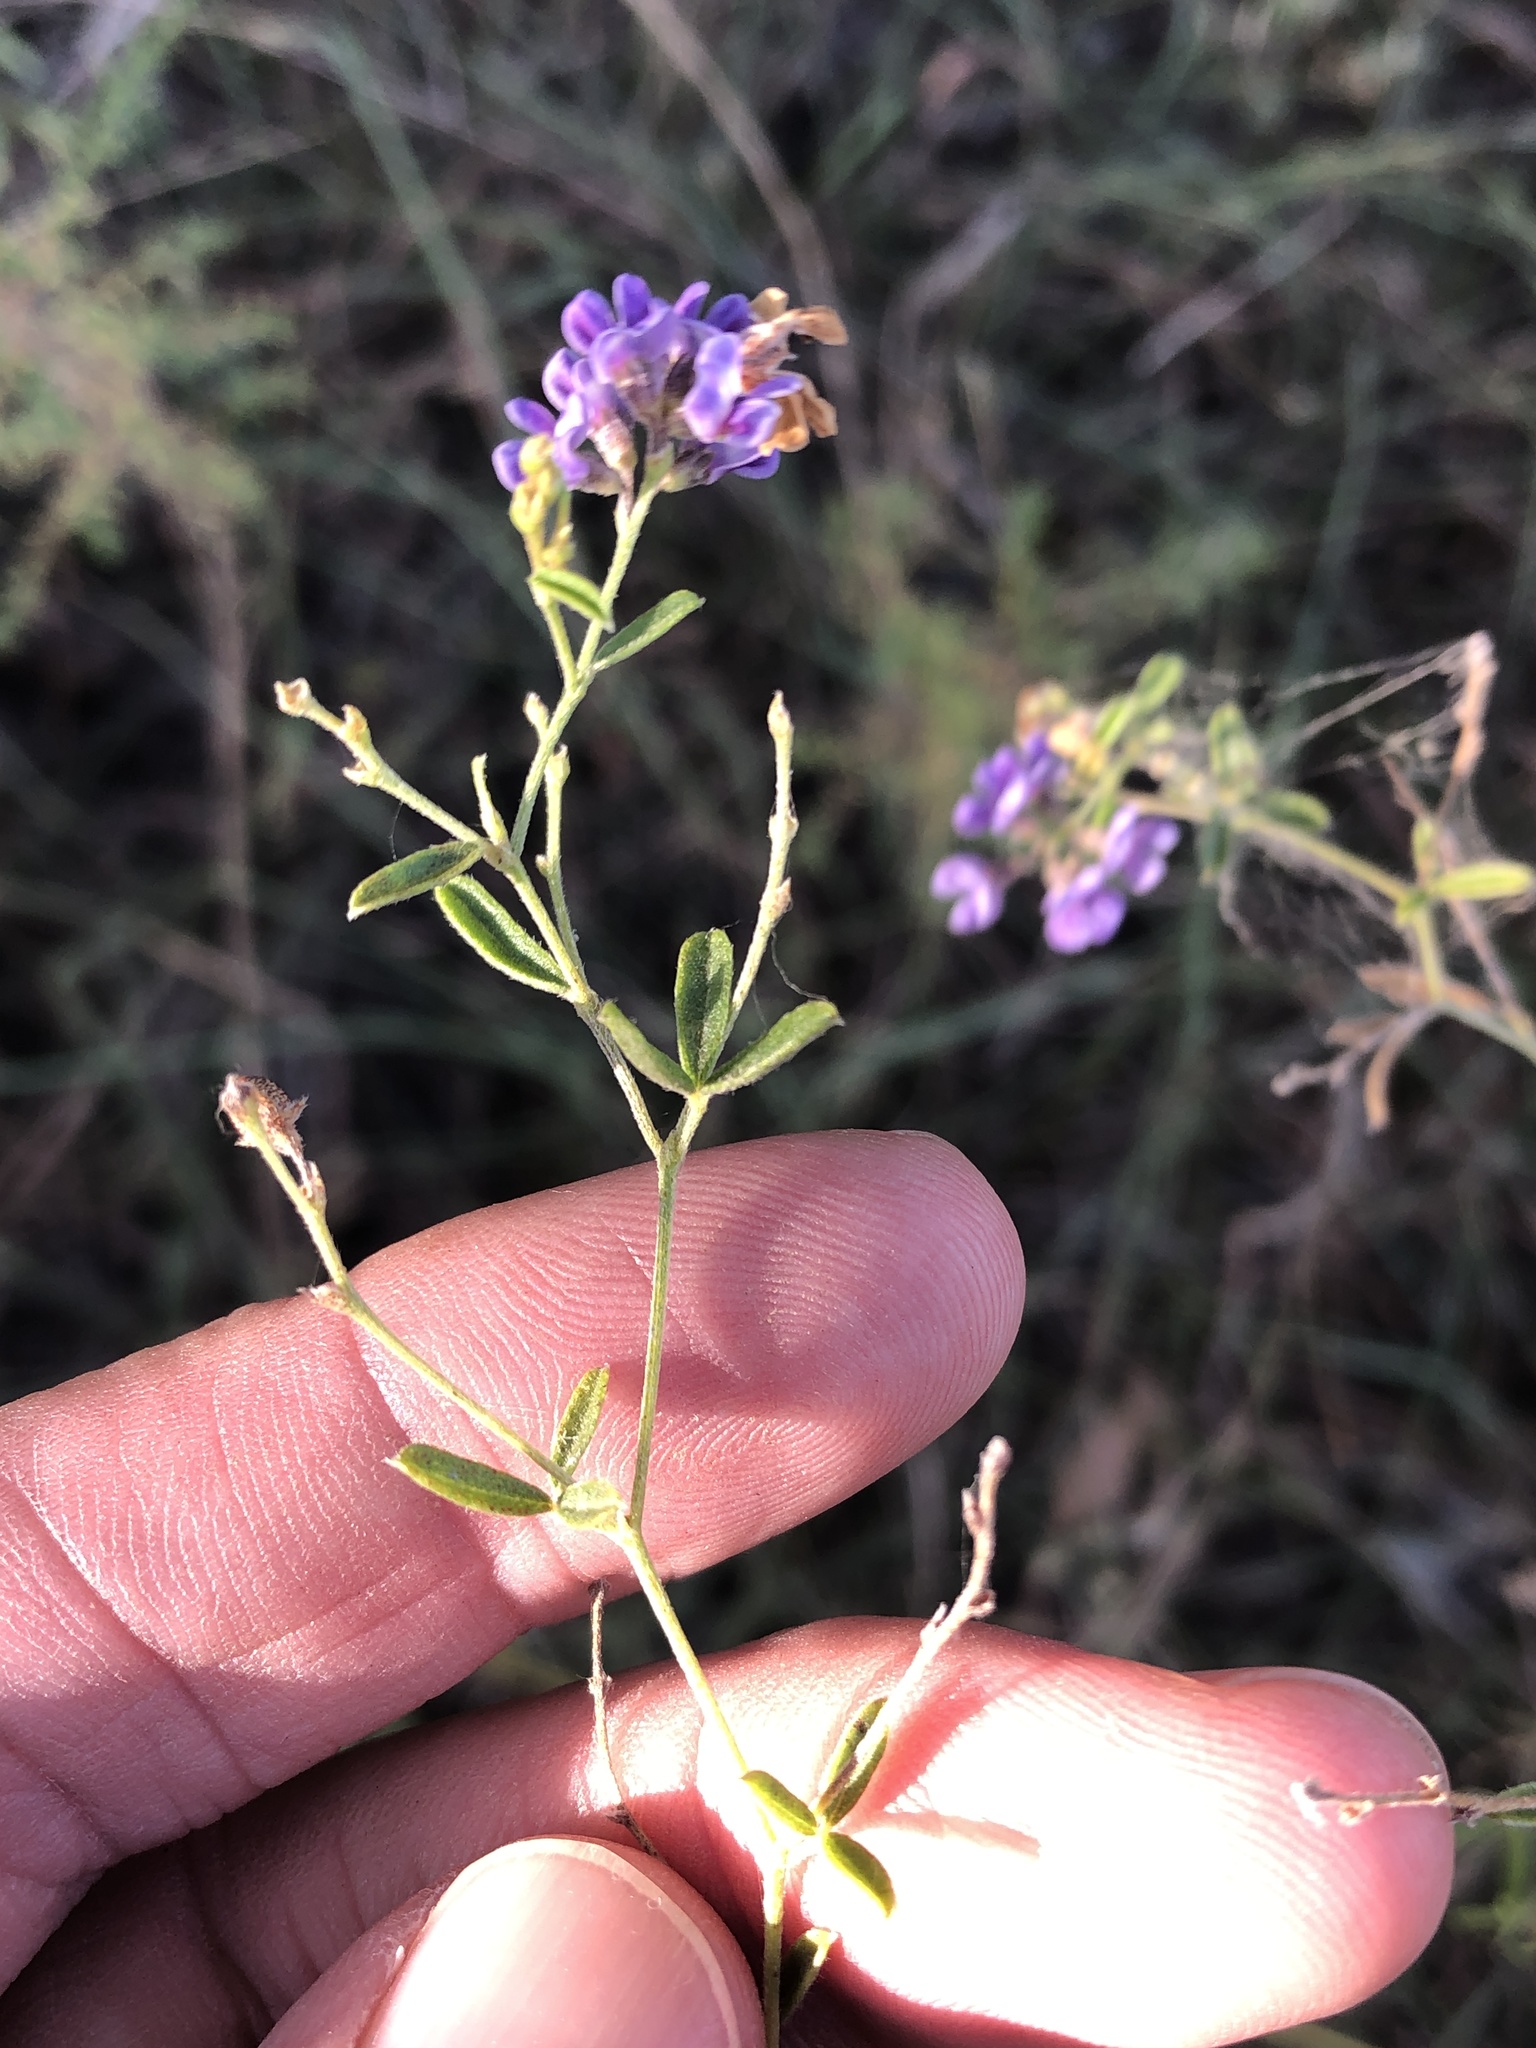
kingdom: Plantae
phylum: Tracheophyta
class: Magnoliopsida
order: Fabales
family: Fabaceae
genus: Pediomelum
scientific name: Pediomelum tenuiflorum
